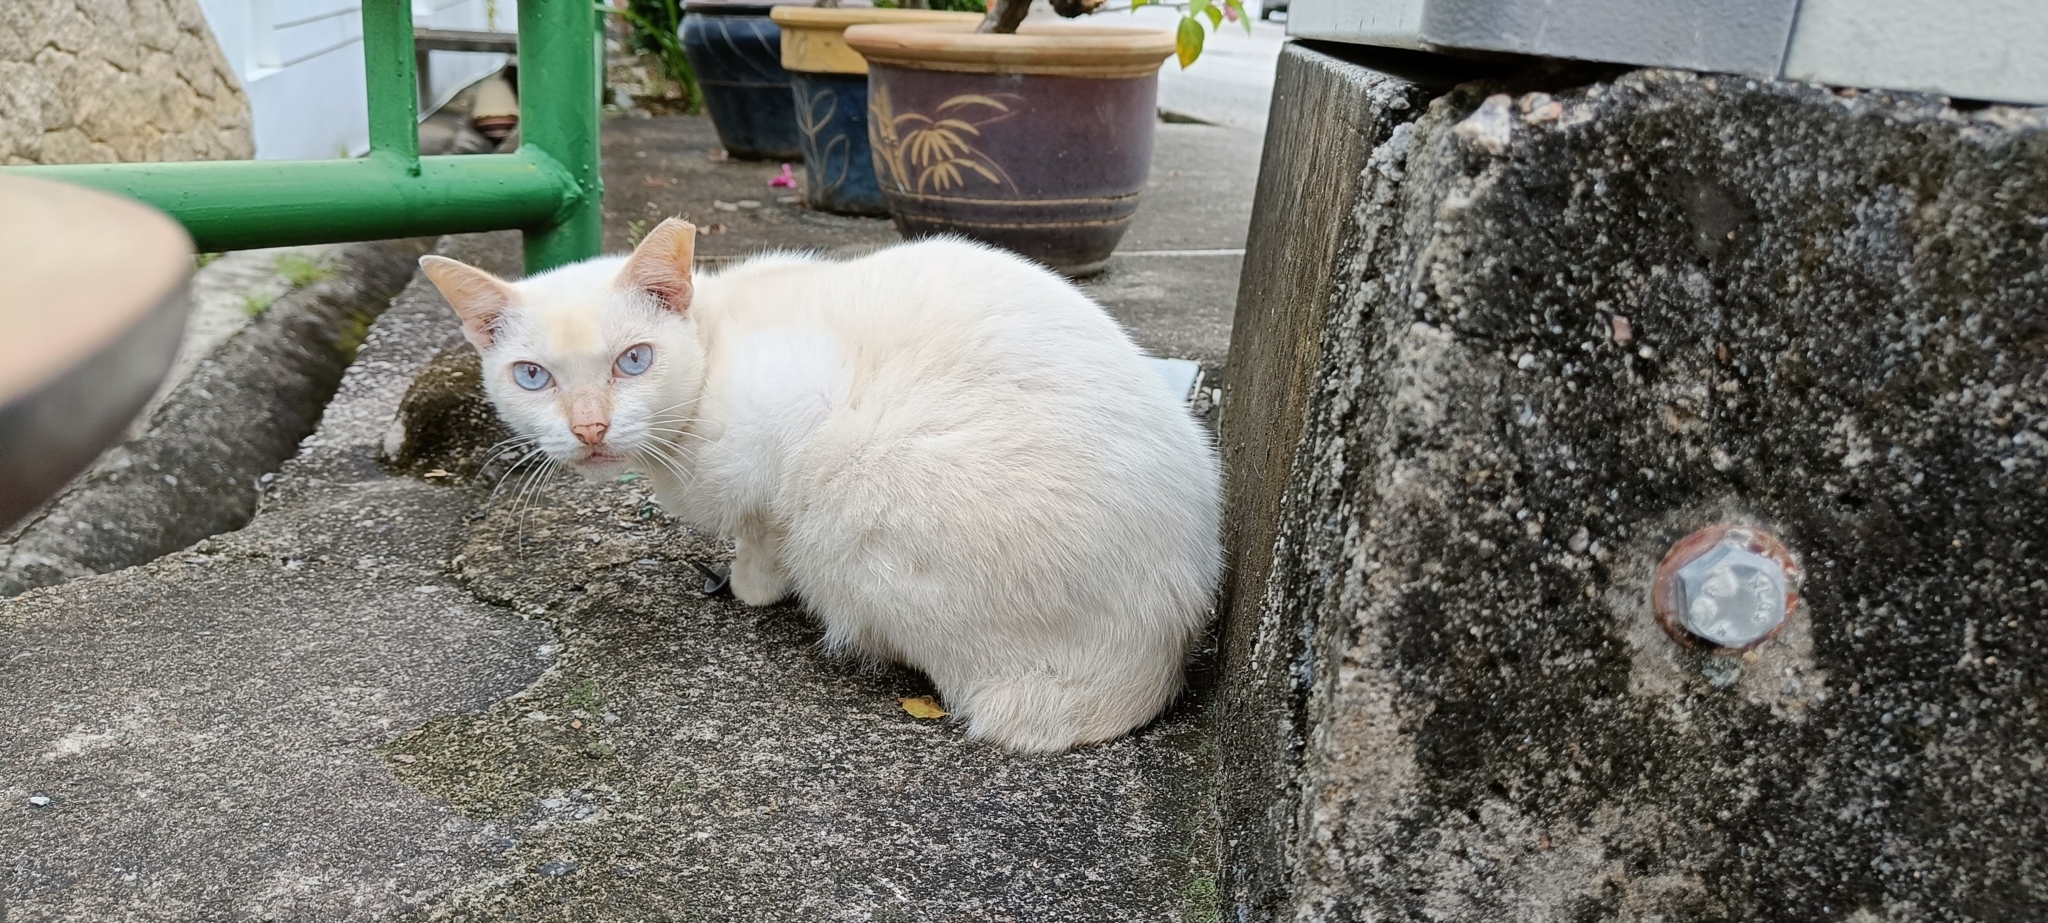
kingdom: Animalia
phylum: Chordata
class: Mammalia
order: Carnivora
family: Felidae
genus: Felis
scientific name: Felis catus
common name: Domestic cat
